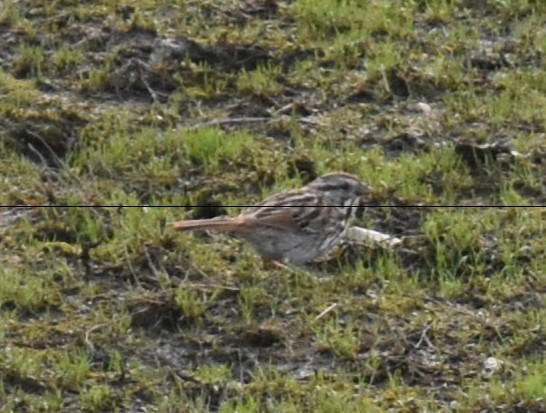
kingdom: Animalia
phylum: Chordata
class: Aves
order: Passeriformes
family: Passerellidae
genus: Melospiza
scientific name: Melospiza melodia
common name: Song sparrow
